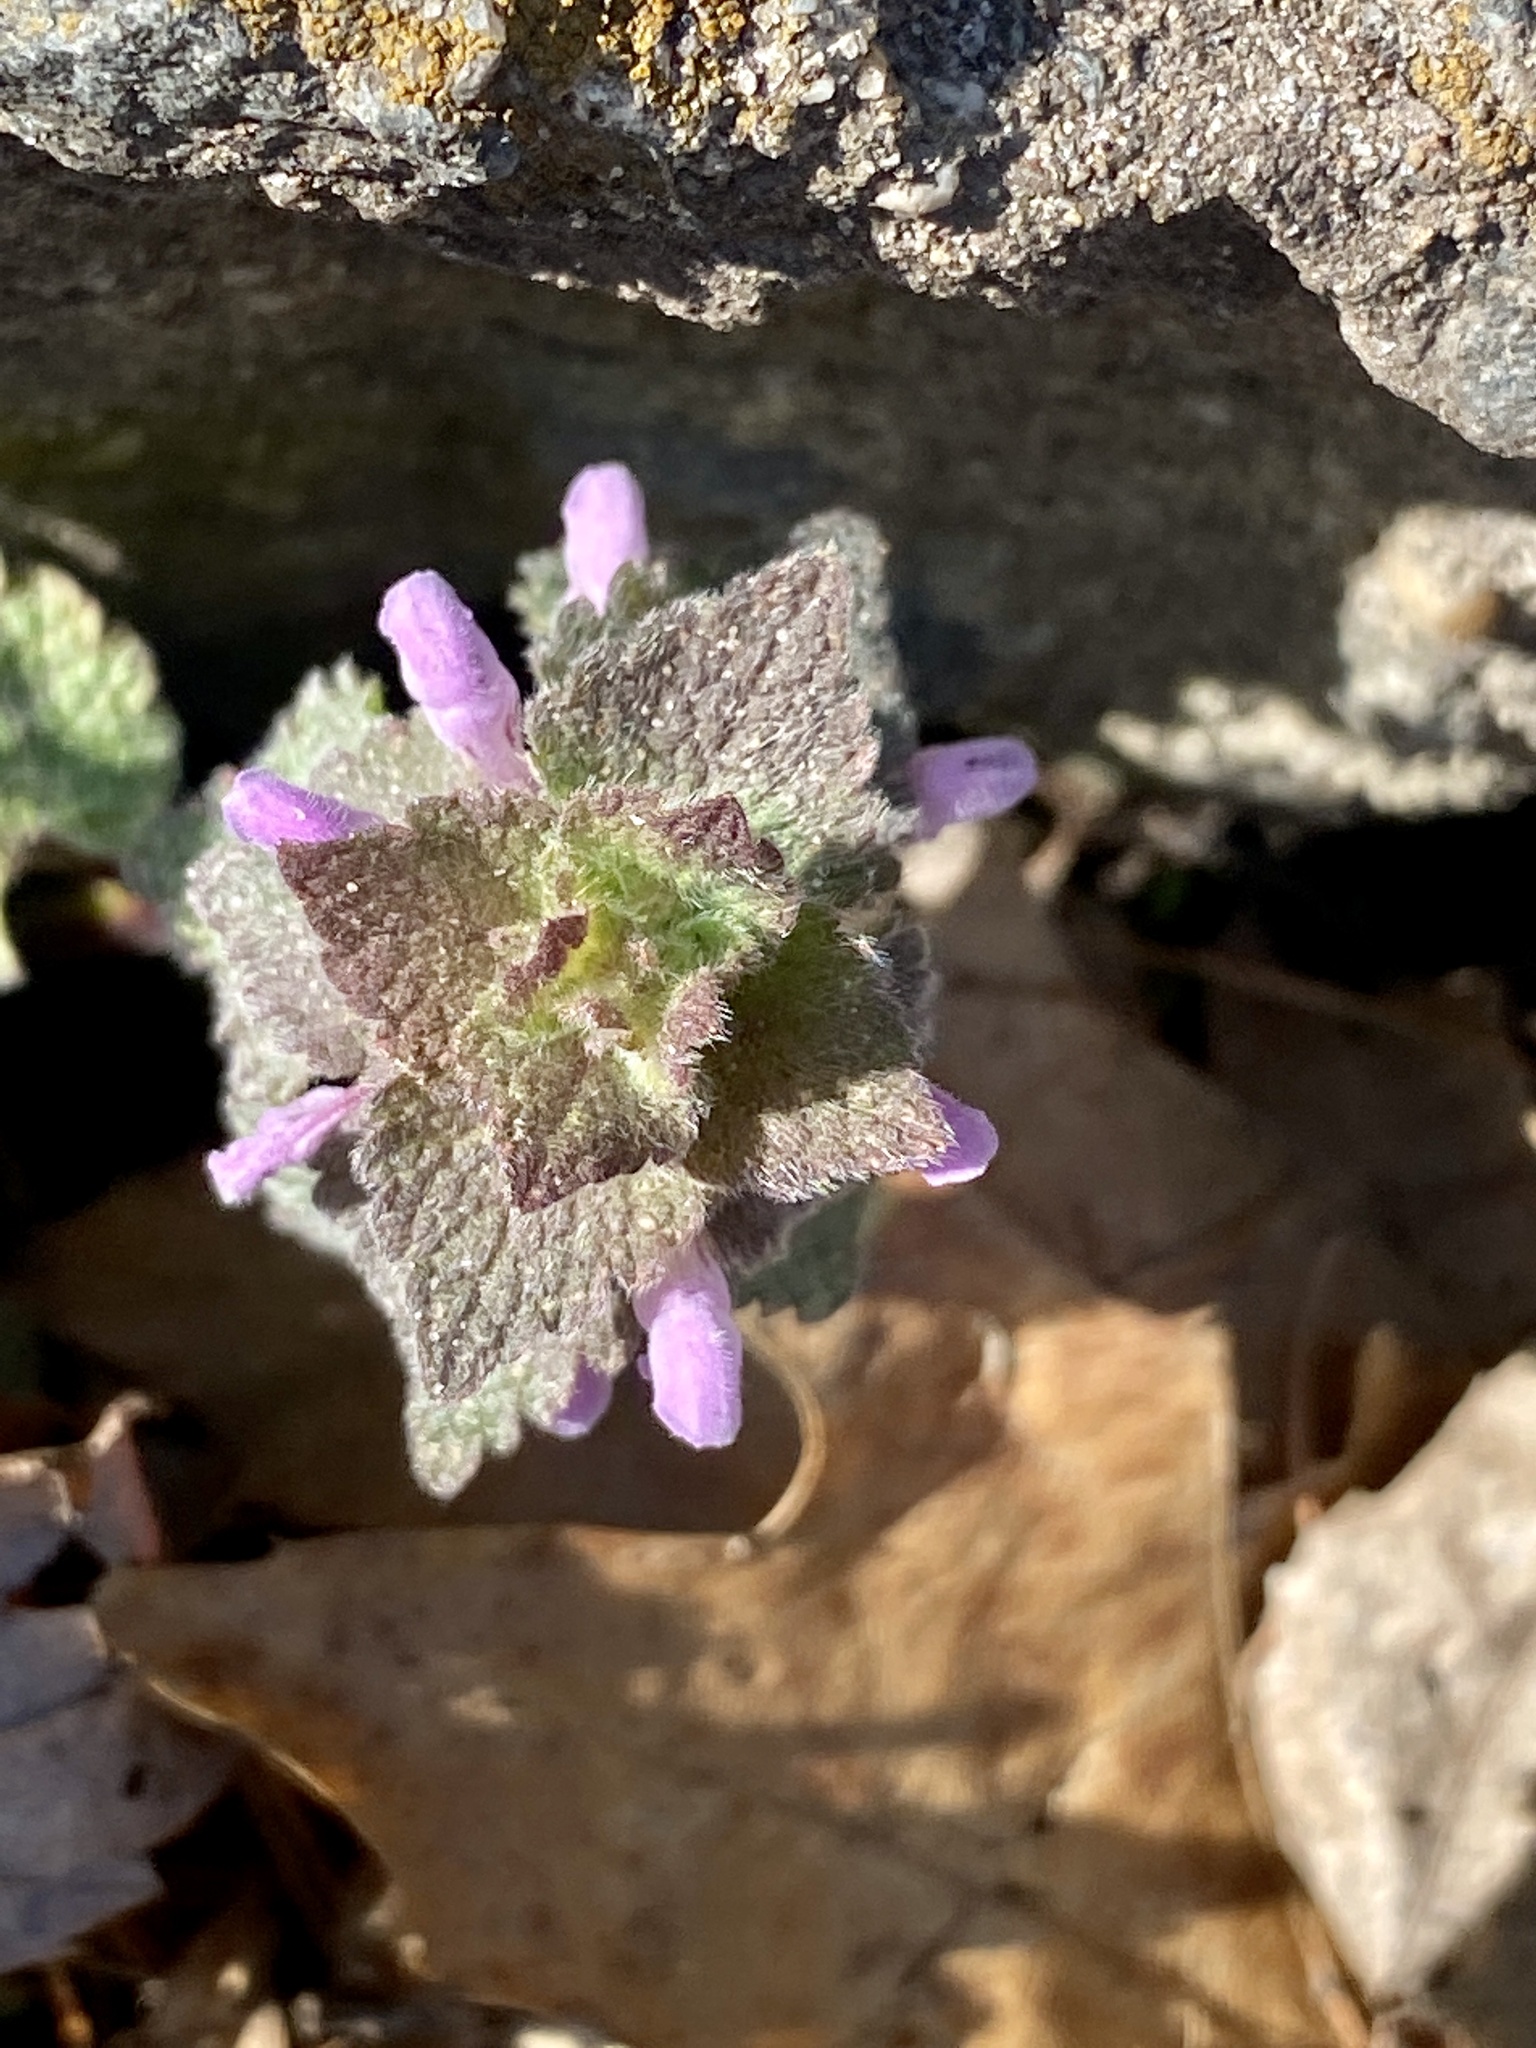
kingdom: Plantae
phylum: Tracheophyta
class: Magnoliopsida
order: Lamiales
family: Lamiaceae
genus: Lamium
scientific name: Lamium purpureum
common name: Red dead-nettle
